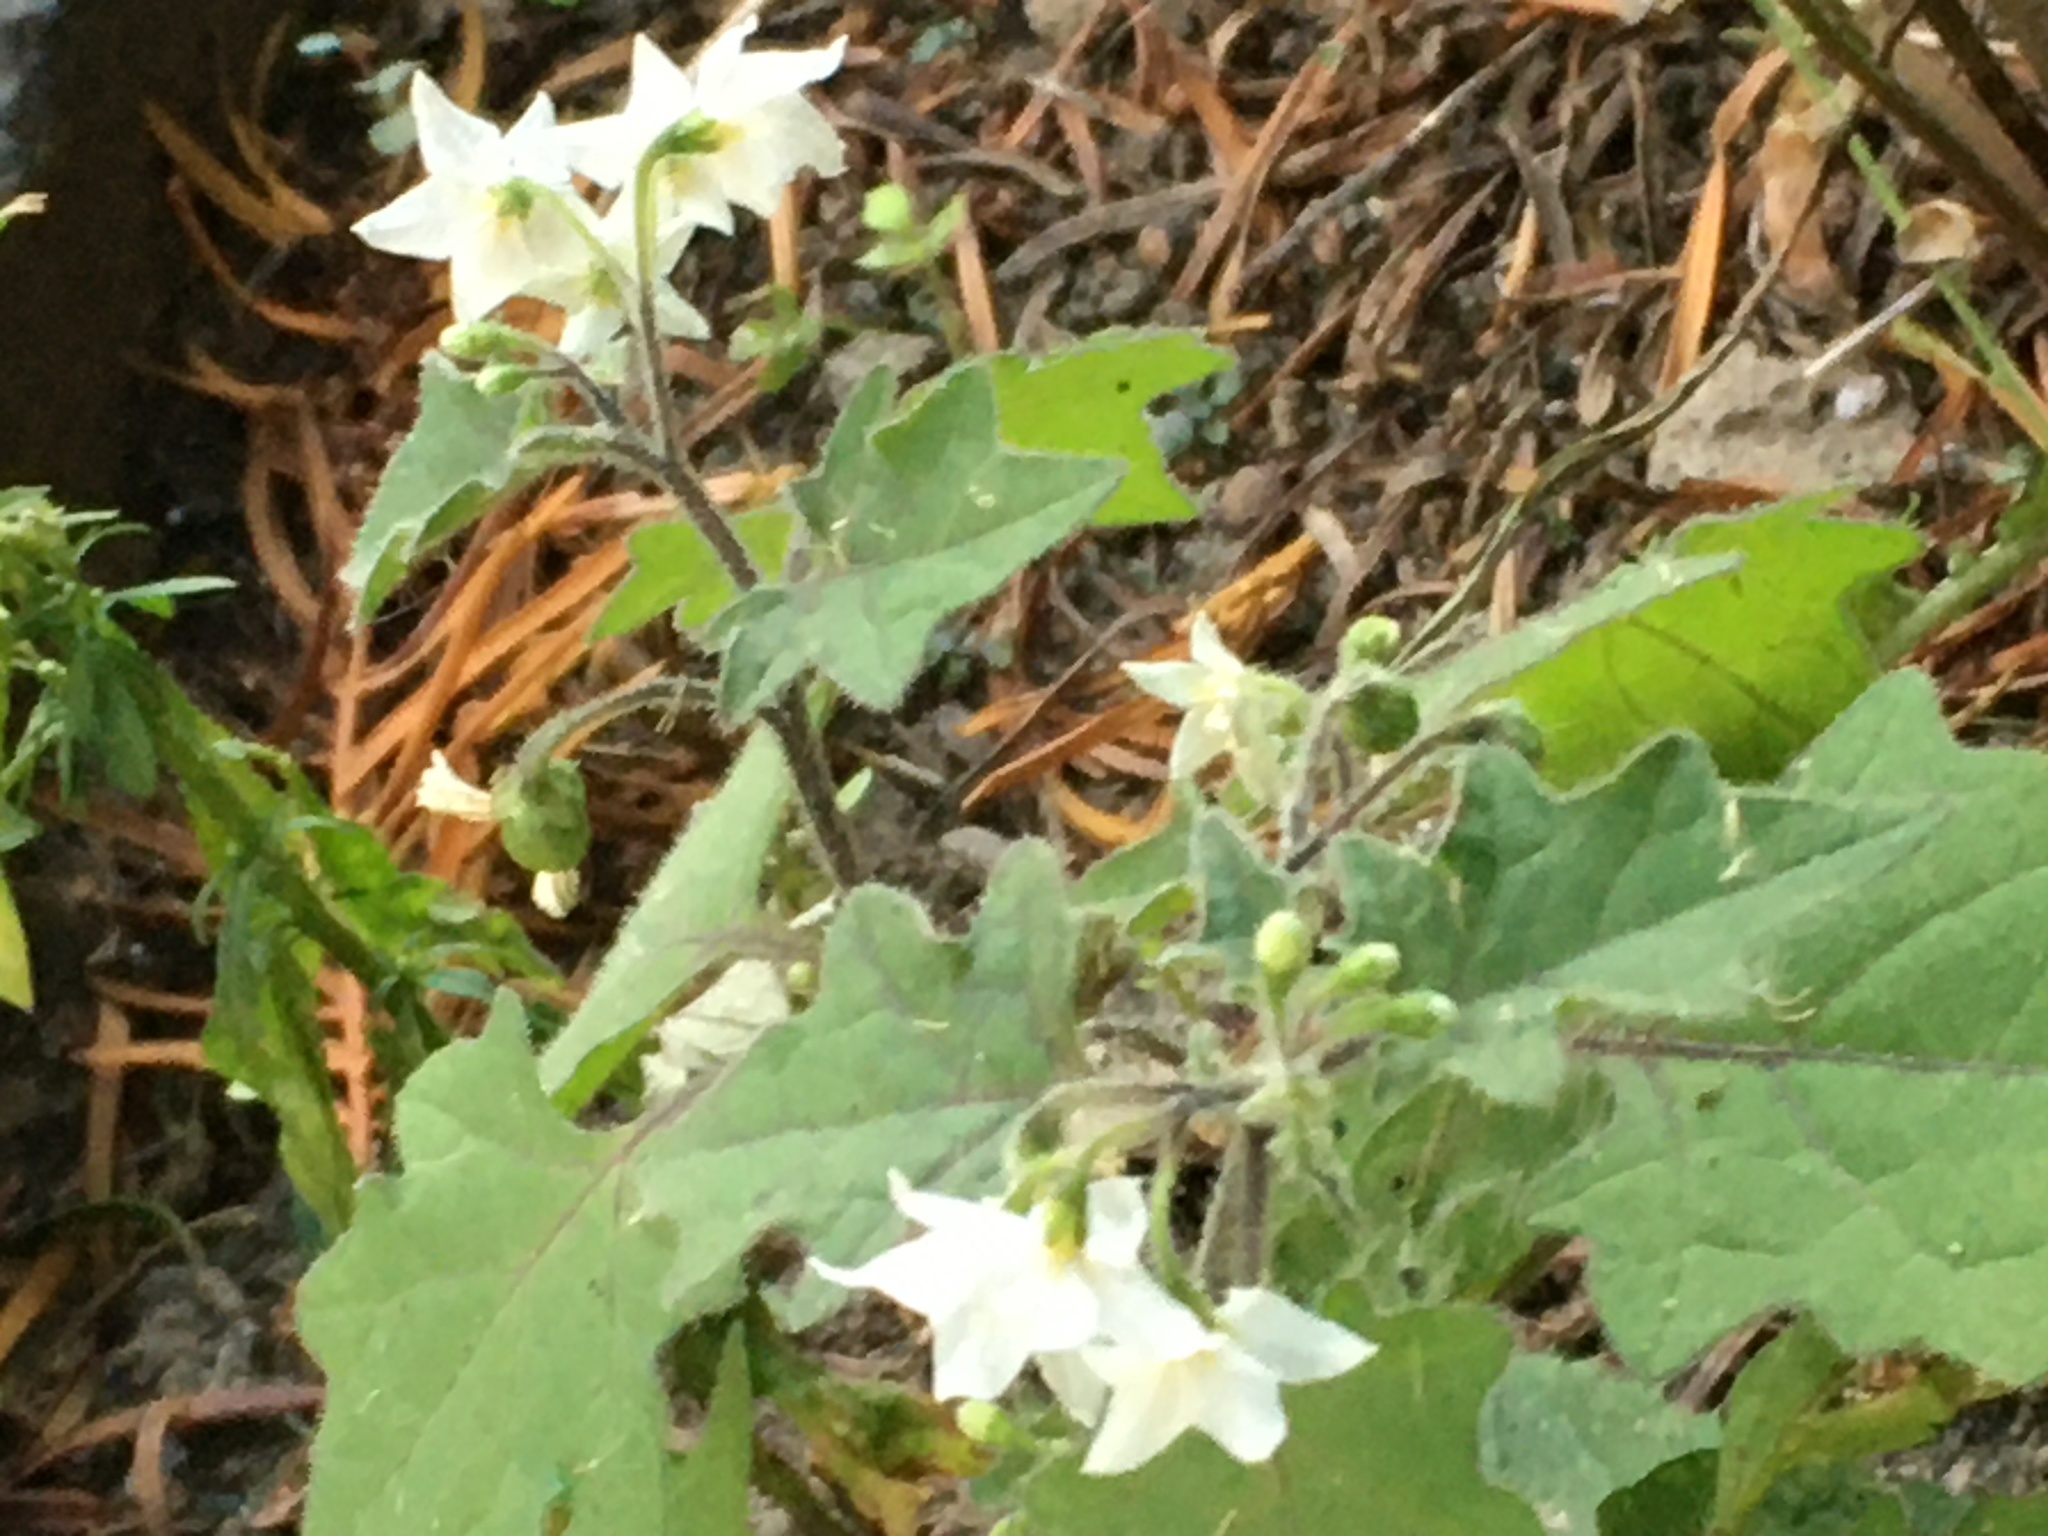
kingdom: Plantae
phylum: Tracheophyta
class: Magnoliopsida
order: Solanales
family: Solanaceae
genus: Solanum
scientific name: Solanum nigrum
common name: Black nightshade
